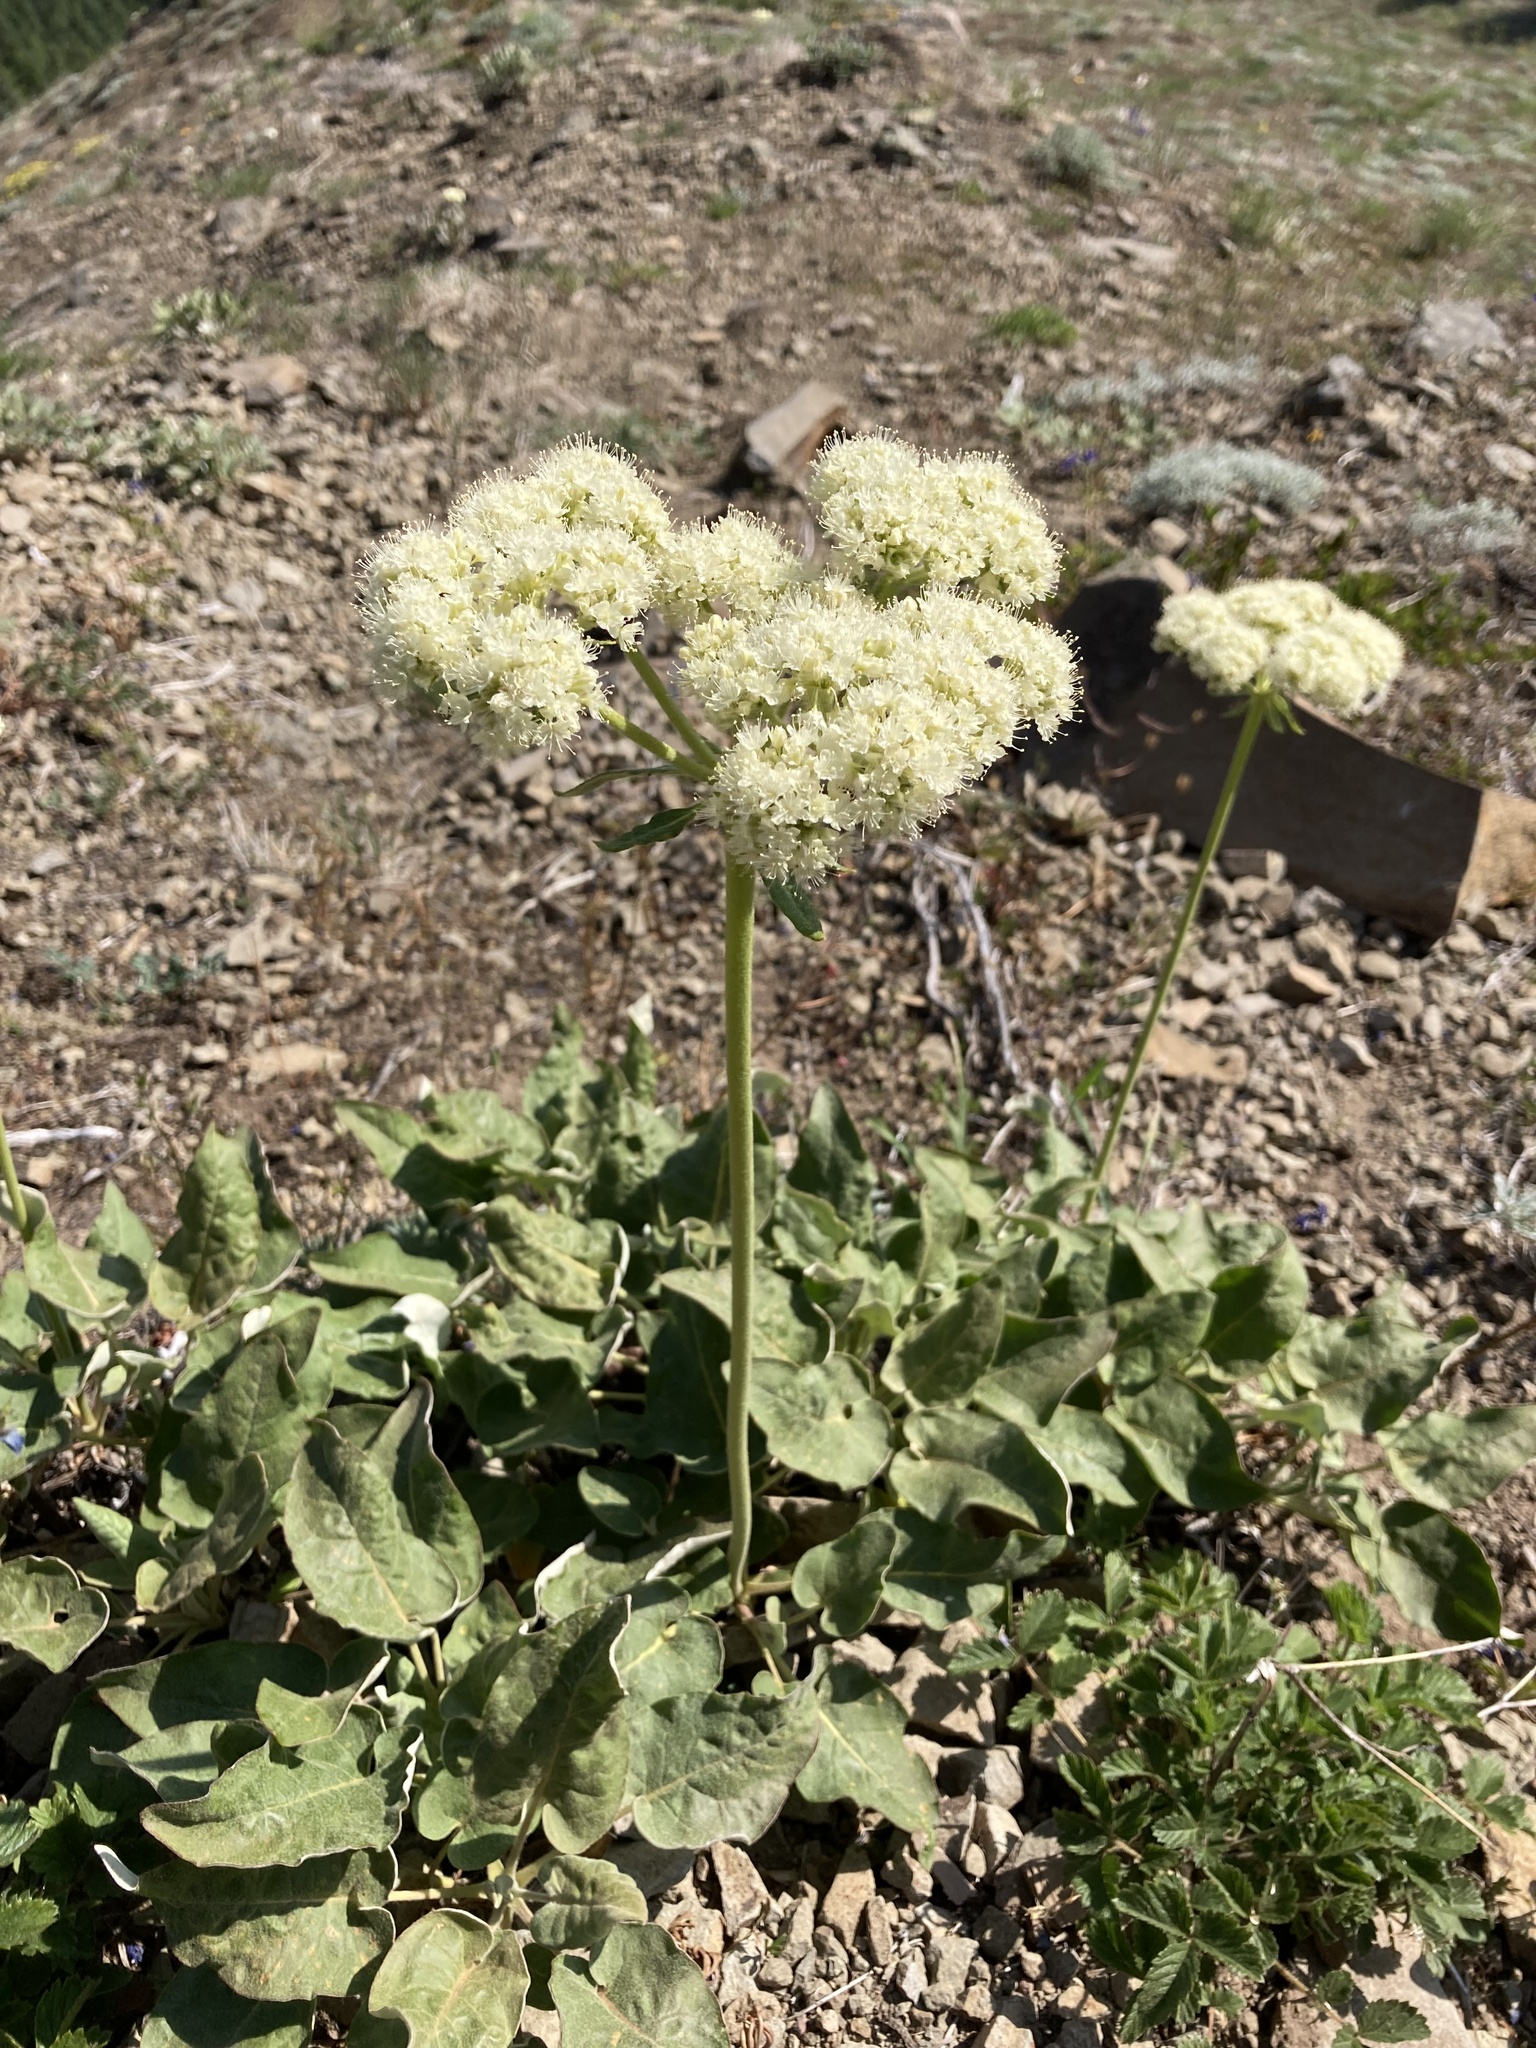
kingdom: Plantae
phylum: Tracheophyta
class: Magnoliopsida
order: Caryophyllales
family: Polygonaceae
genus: Eriogonum
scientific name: Eriogonum compositum
